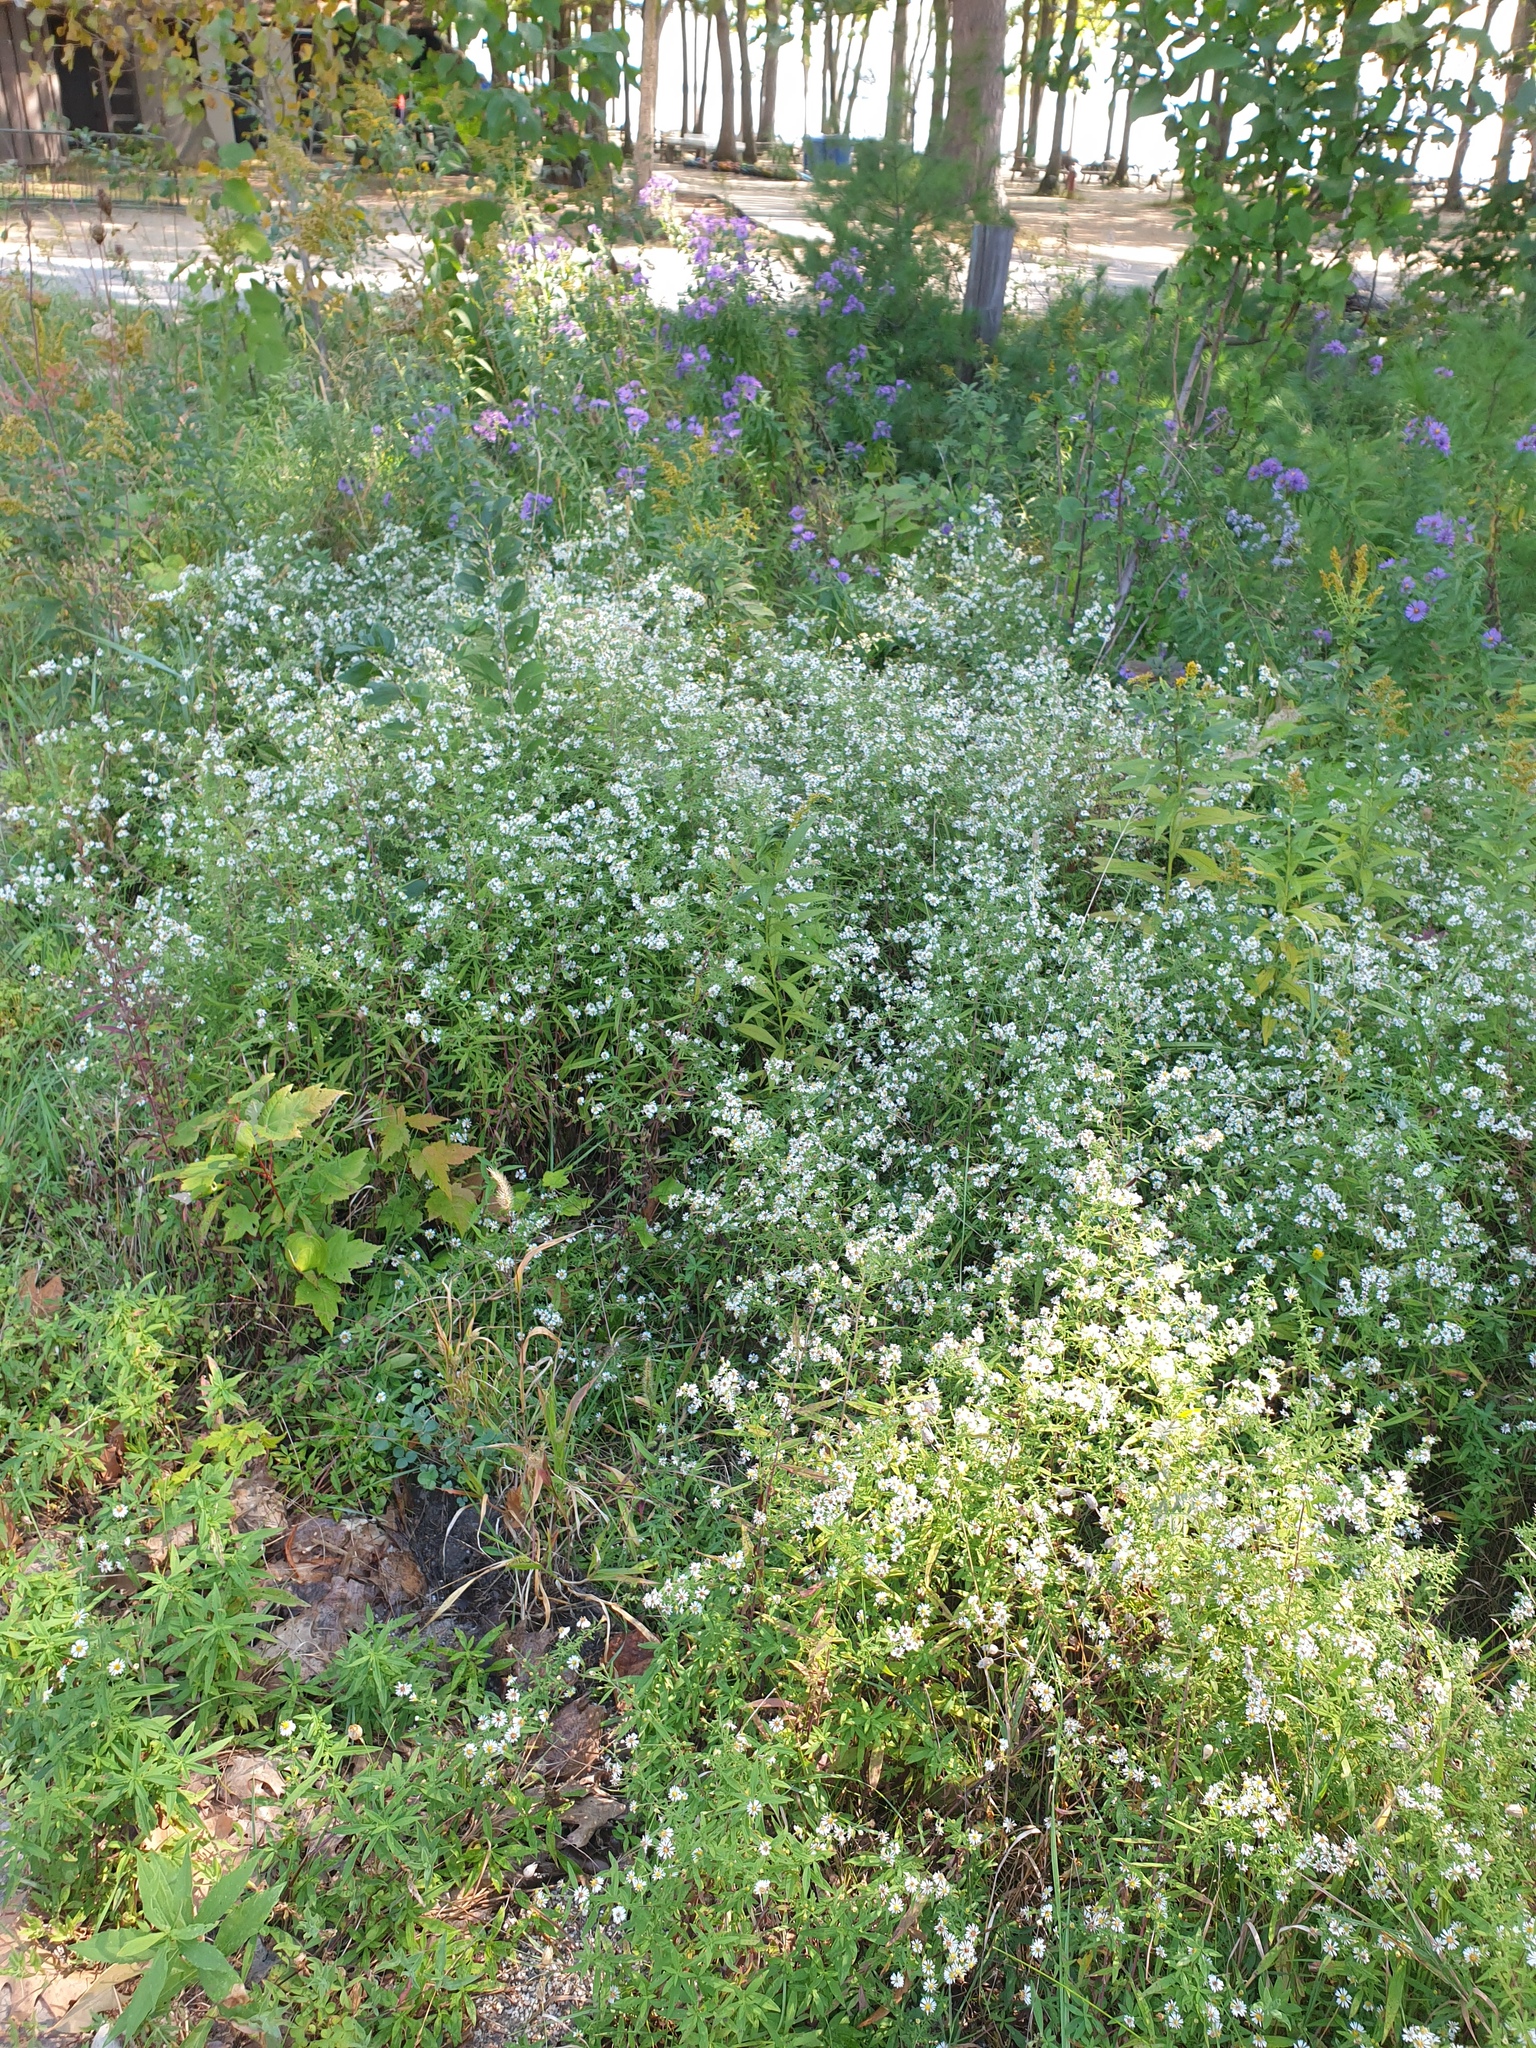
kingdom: Plantae
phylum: Tracheophyta
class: Magnoliopsida
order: Asterales
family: Asteraceae
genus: Symphyotrichum
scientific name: Symphyotrichum ontarionis
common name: Bottomland aster
